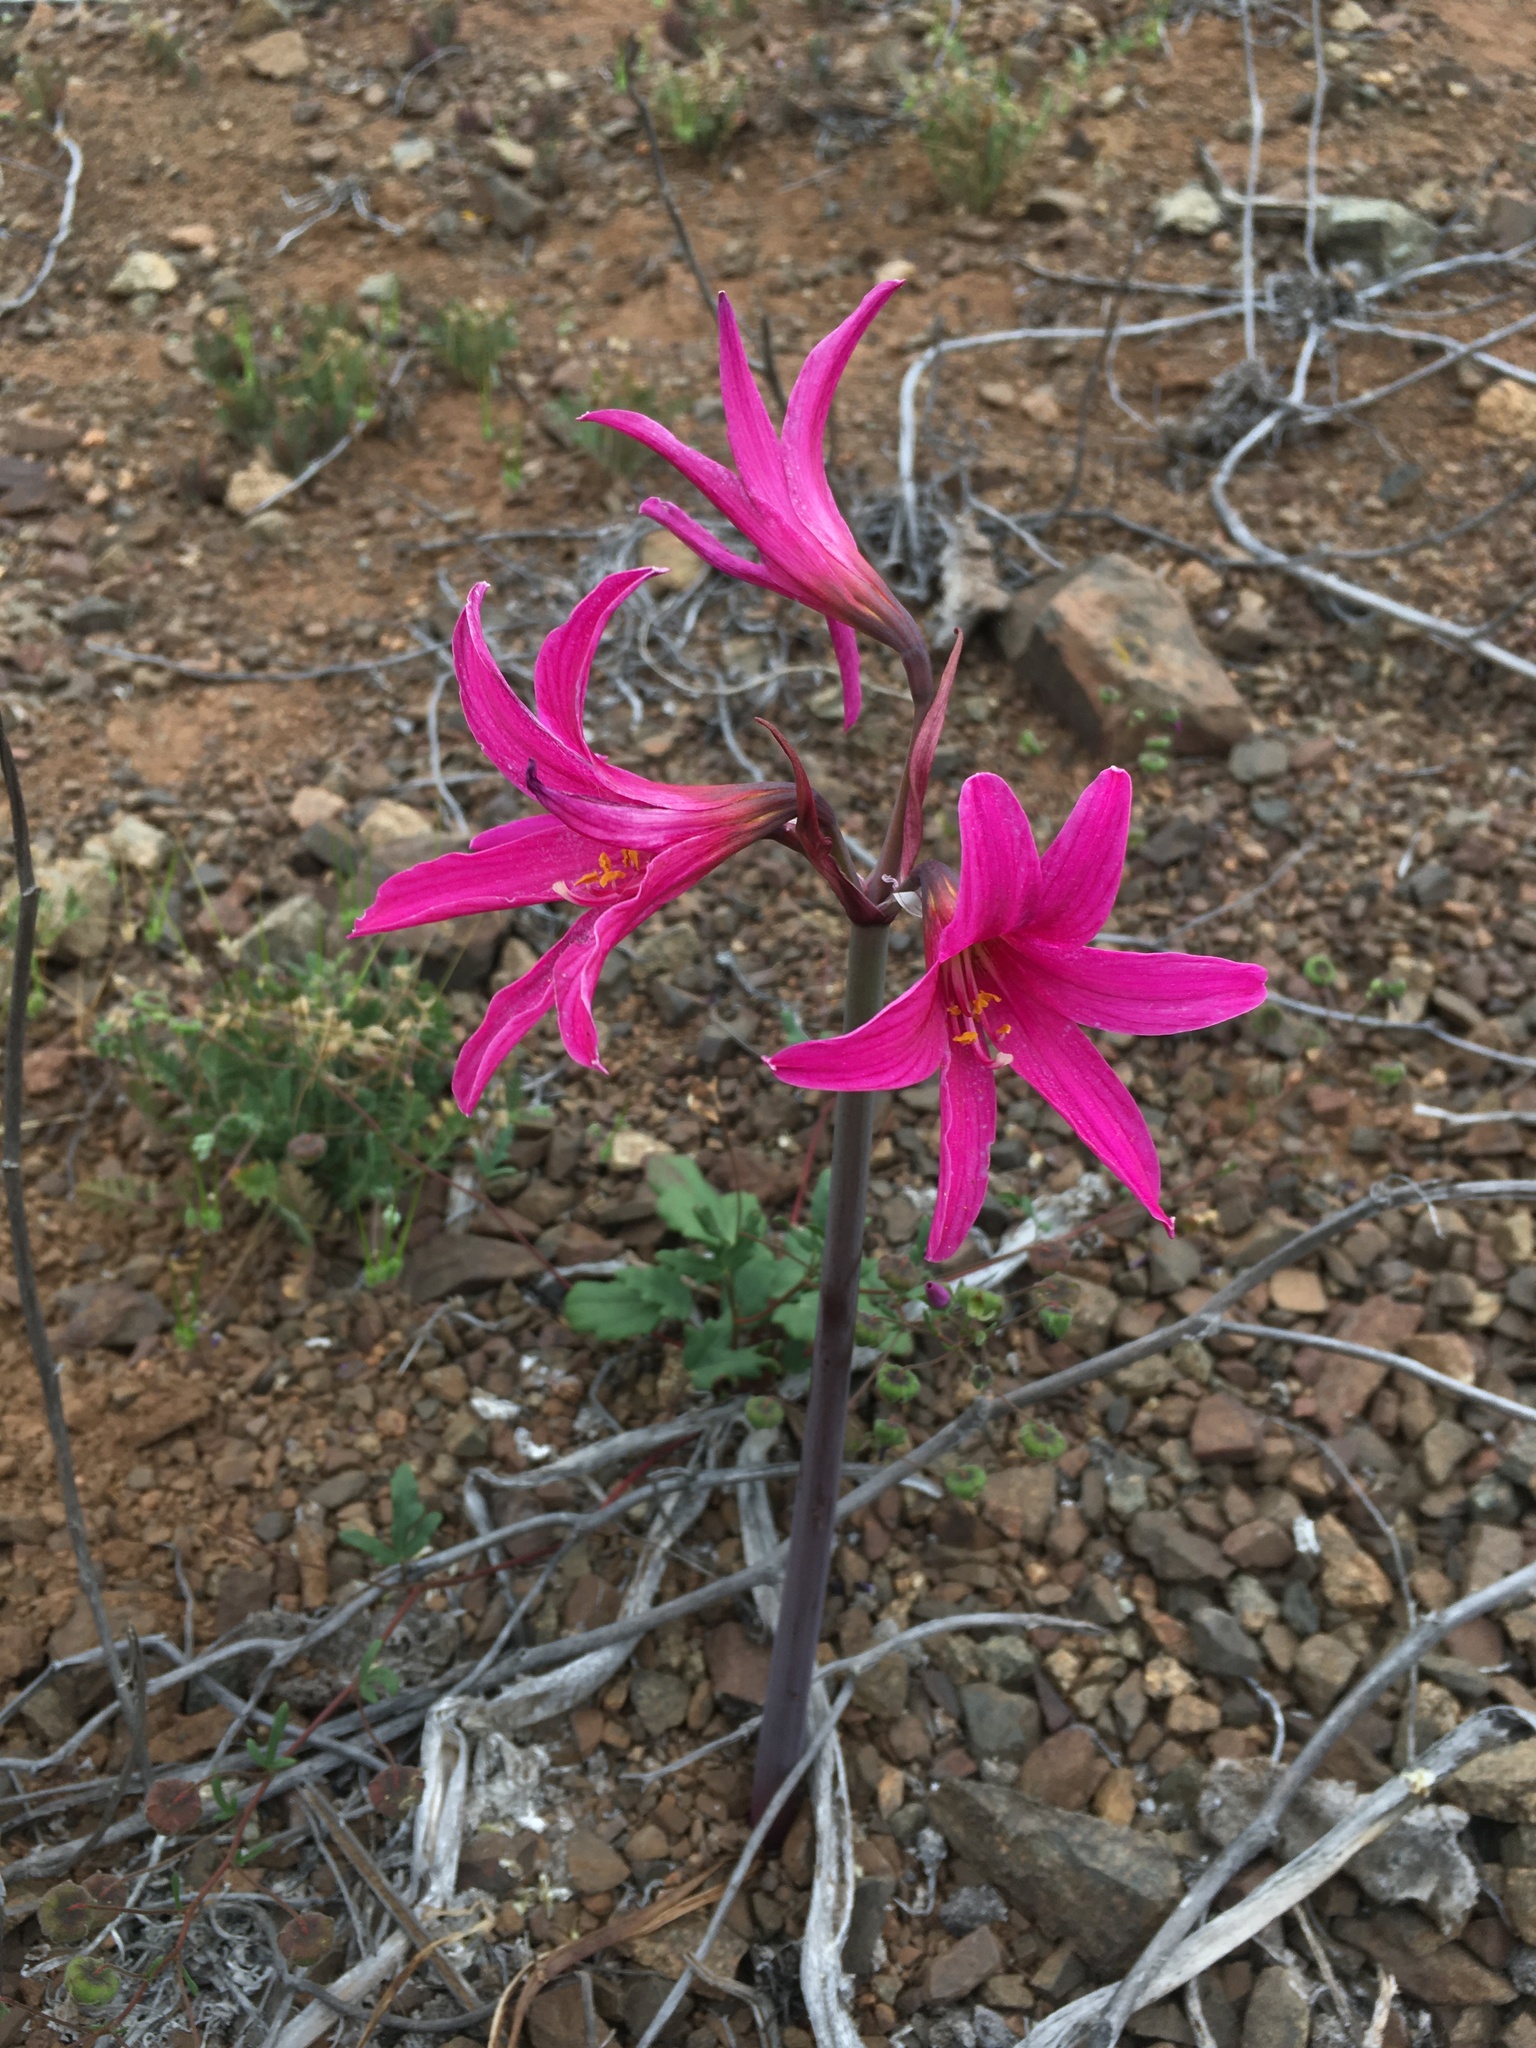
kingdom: Plantae
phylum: Tracheophyta
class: Liliopsida
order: Asparagales
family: Amaryllidaceae
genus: Paposoa
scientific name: Paposoa laeta
